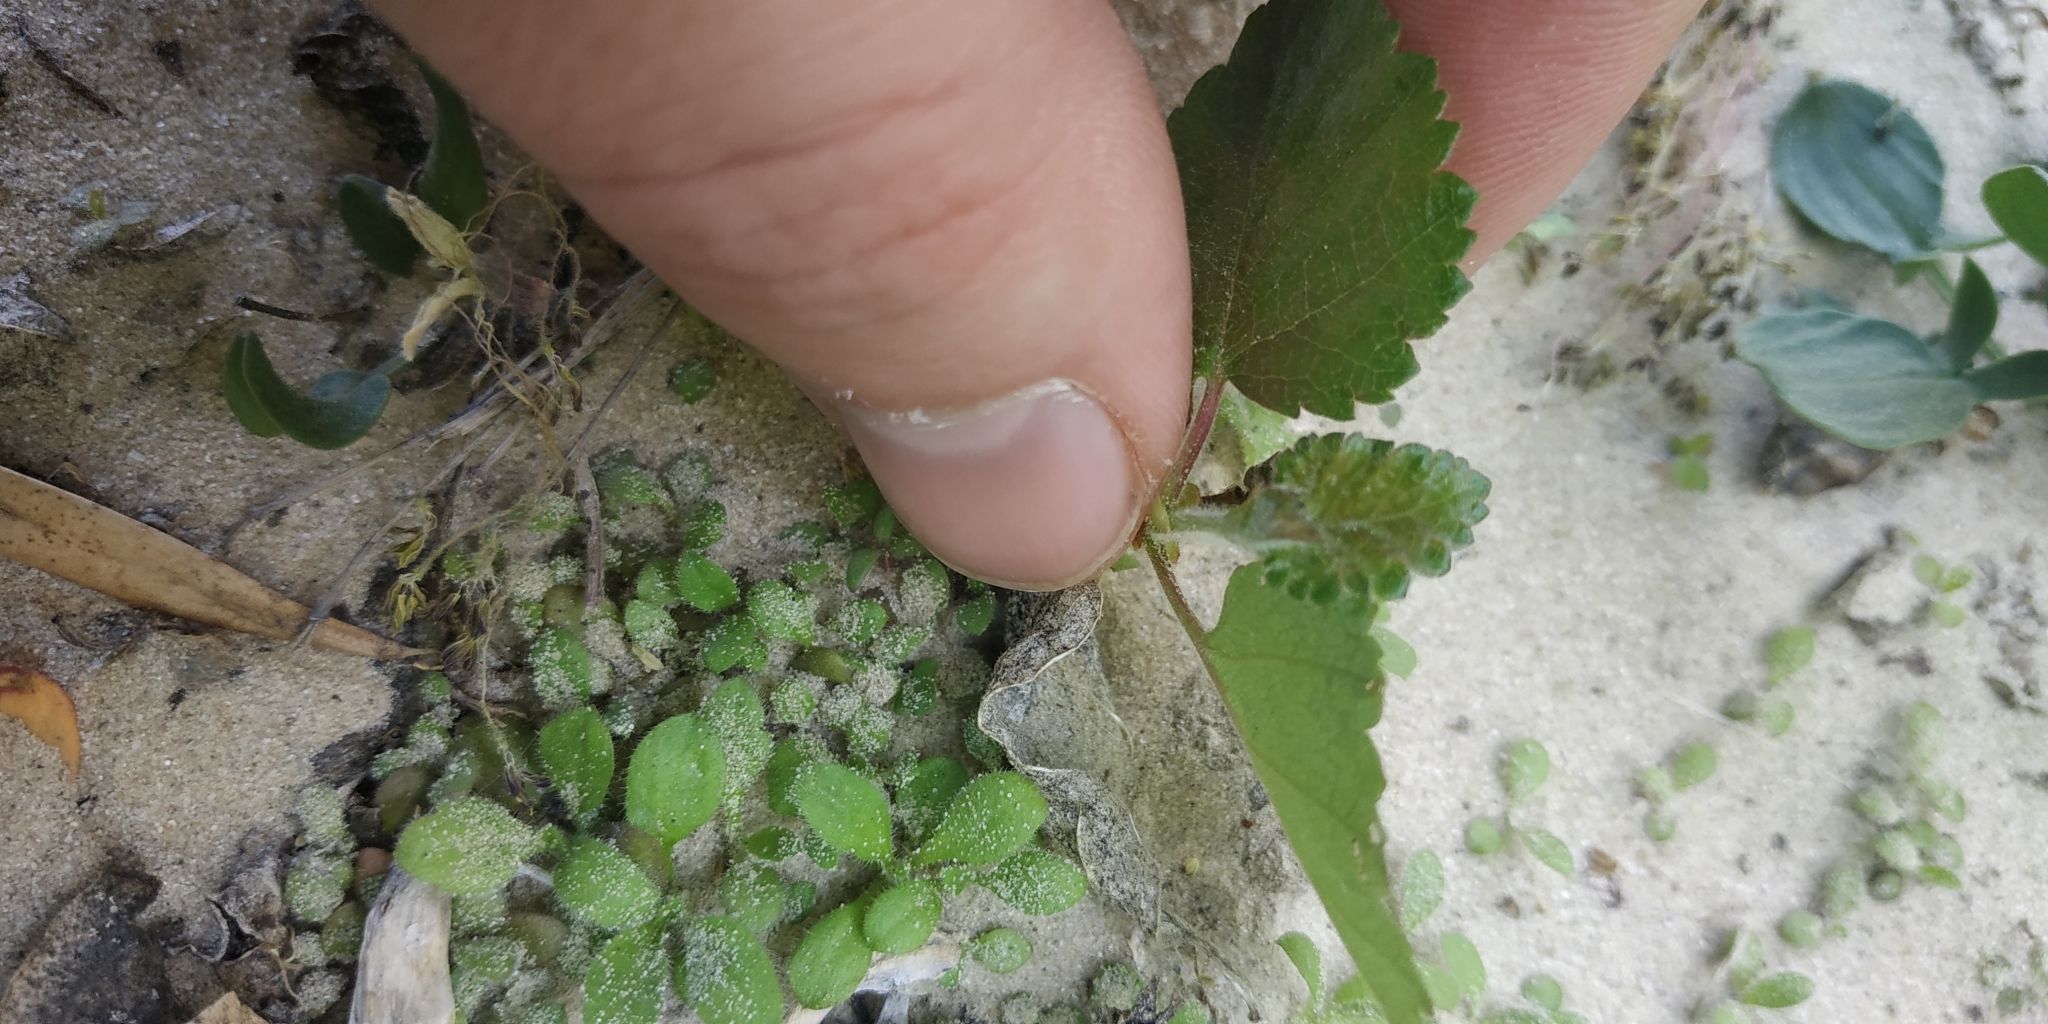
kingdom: Plantae
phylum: Tracheophyta
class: Magnoliopsida
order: Fagales
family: Betulaceae
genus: Betula
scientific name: Betula pubescens
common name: Downy birch
